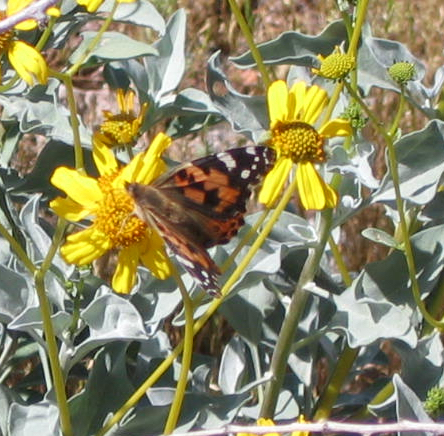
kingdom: Animalia
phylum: Arthropoda
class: Insecta
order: Lepidoptera
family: Nymphalidae
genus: Vanessa
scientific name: Vanessa cardui
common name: Painted lady
